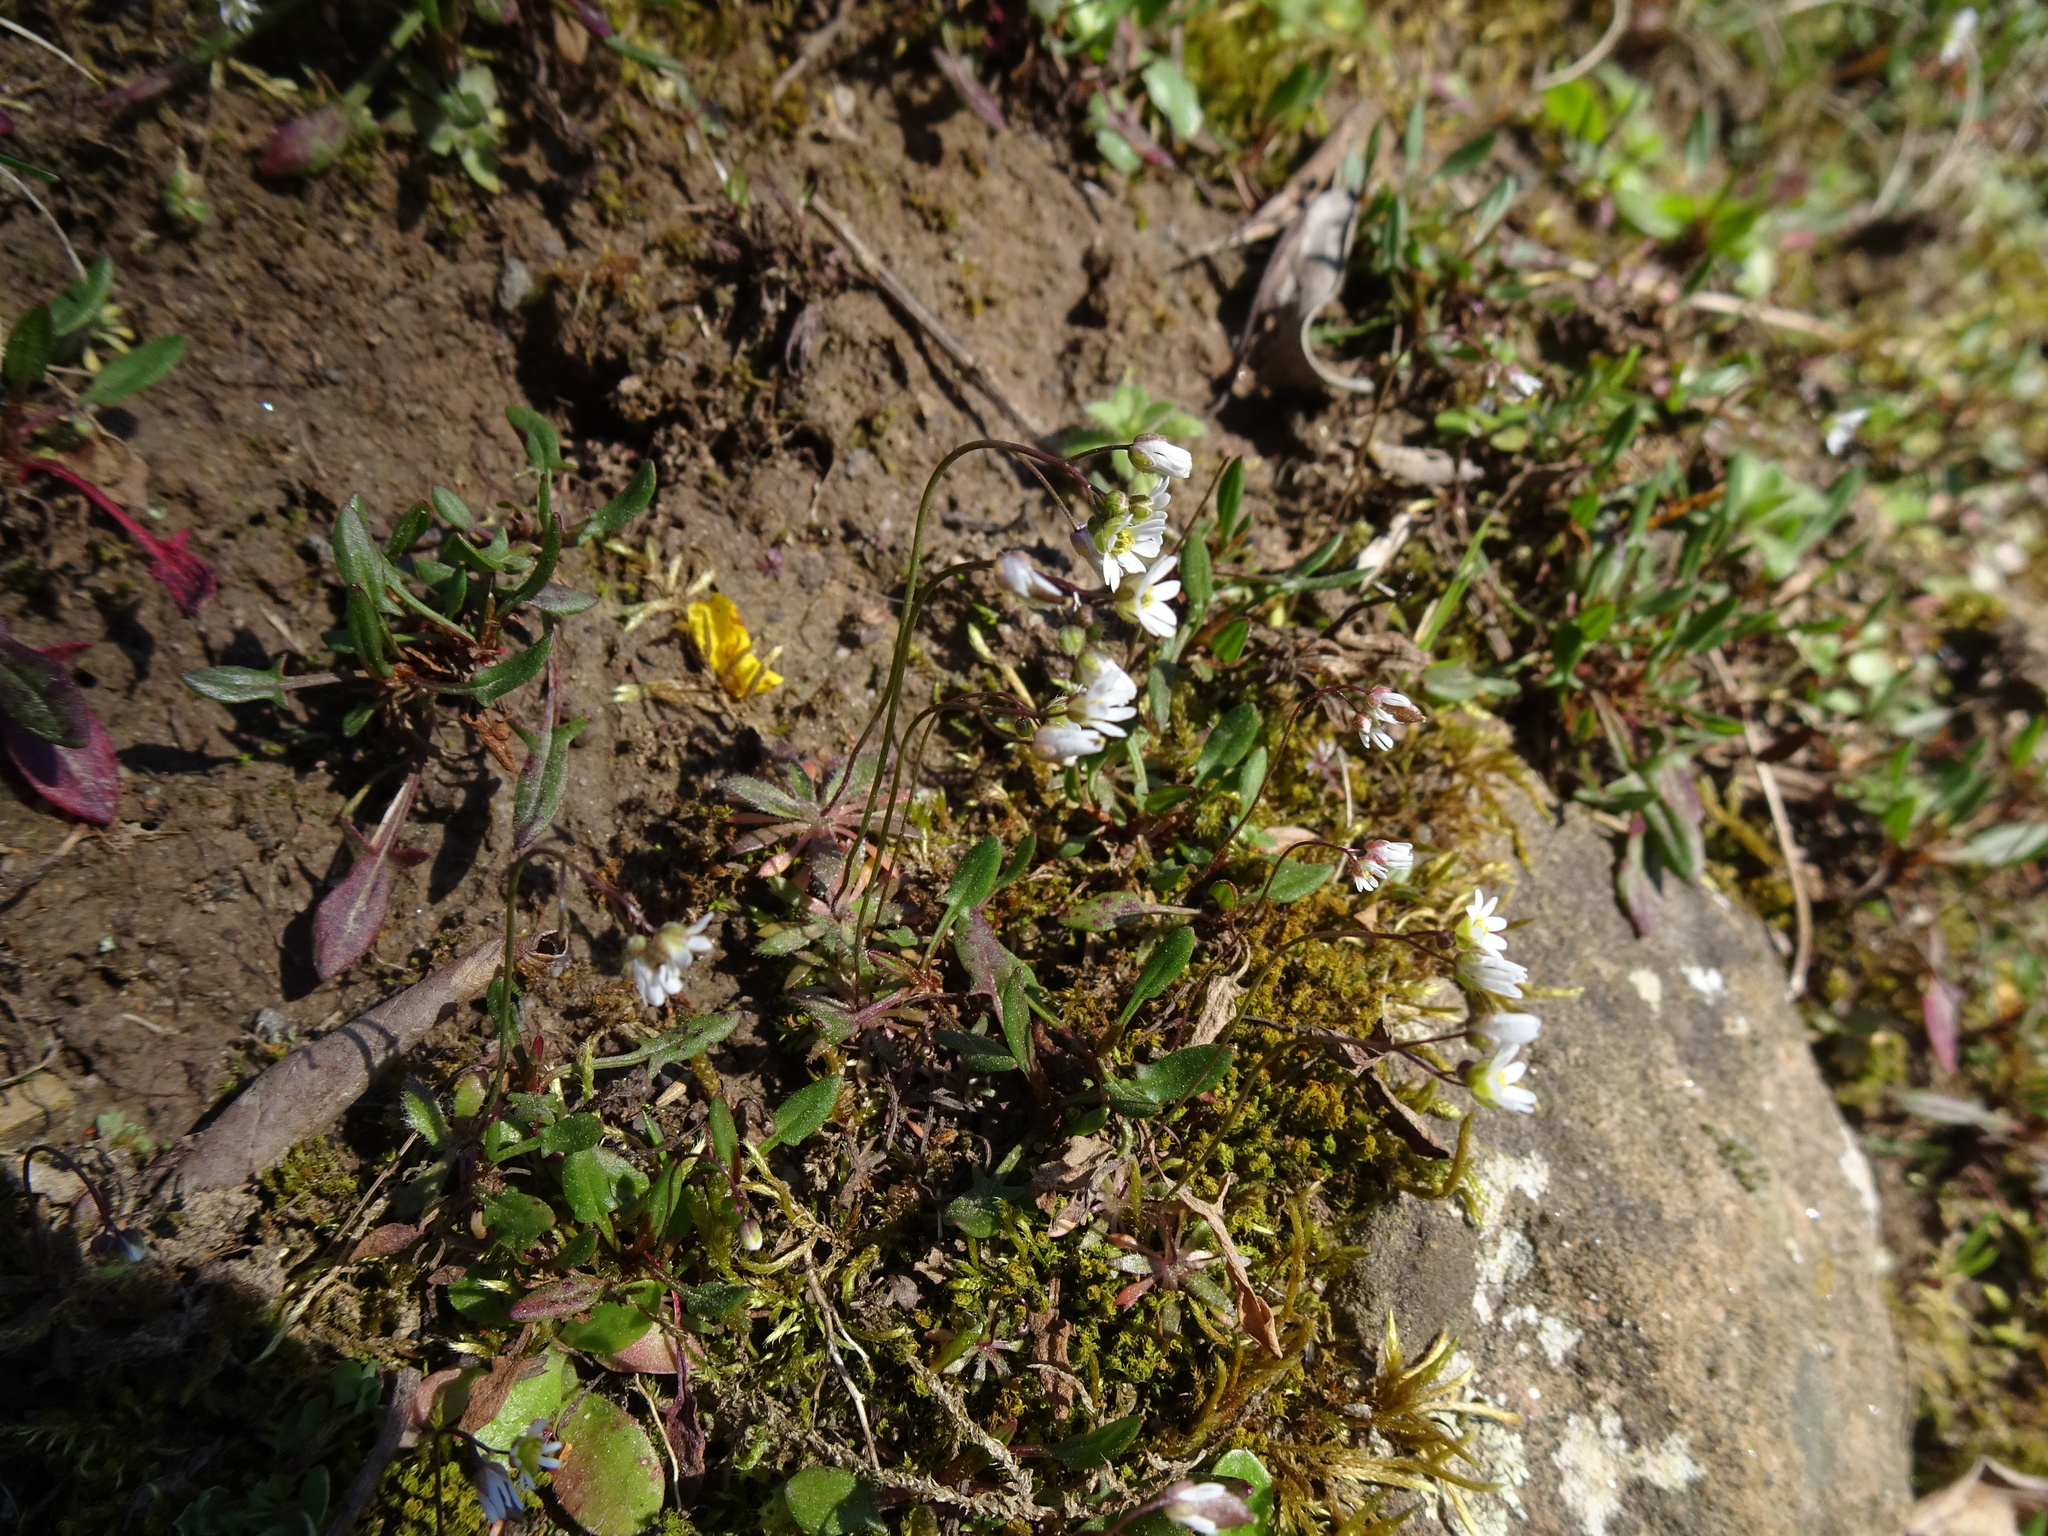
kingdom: Plantae
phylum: Tracheophyta
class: Magnoliopsida
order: Brassicales
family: Brassicaceae
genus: Draba
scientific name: Draba verna
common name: Spring draba
